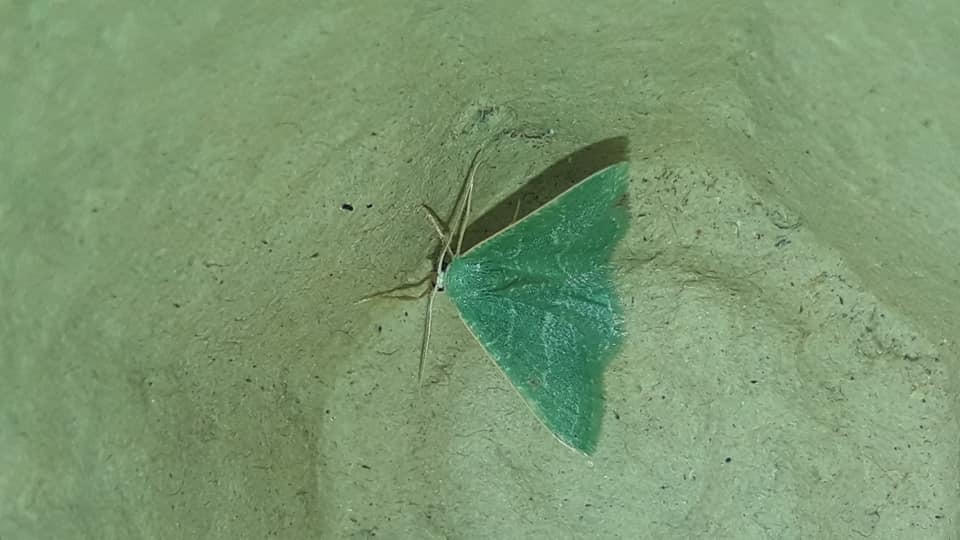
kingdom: Animalia
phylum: Arthropoda
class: Insecta
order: Lepidoptera
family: Geometridae
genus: Chlorissa
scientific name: Chlorissa etruscaria
